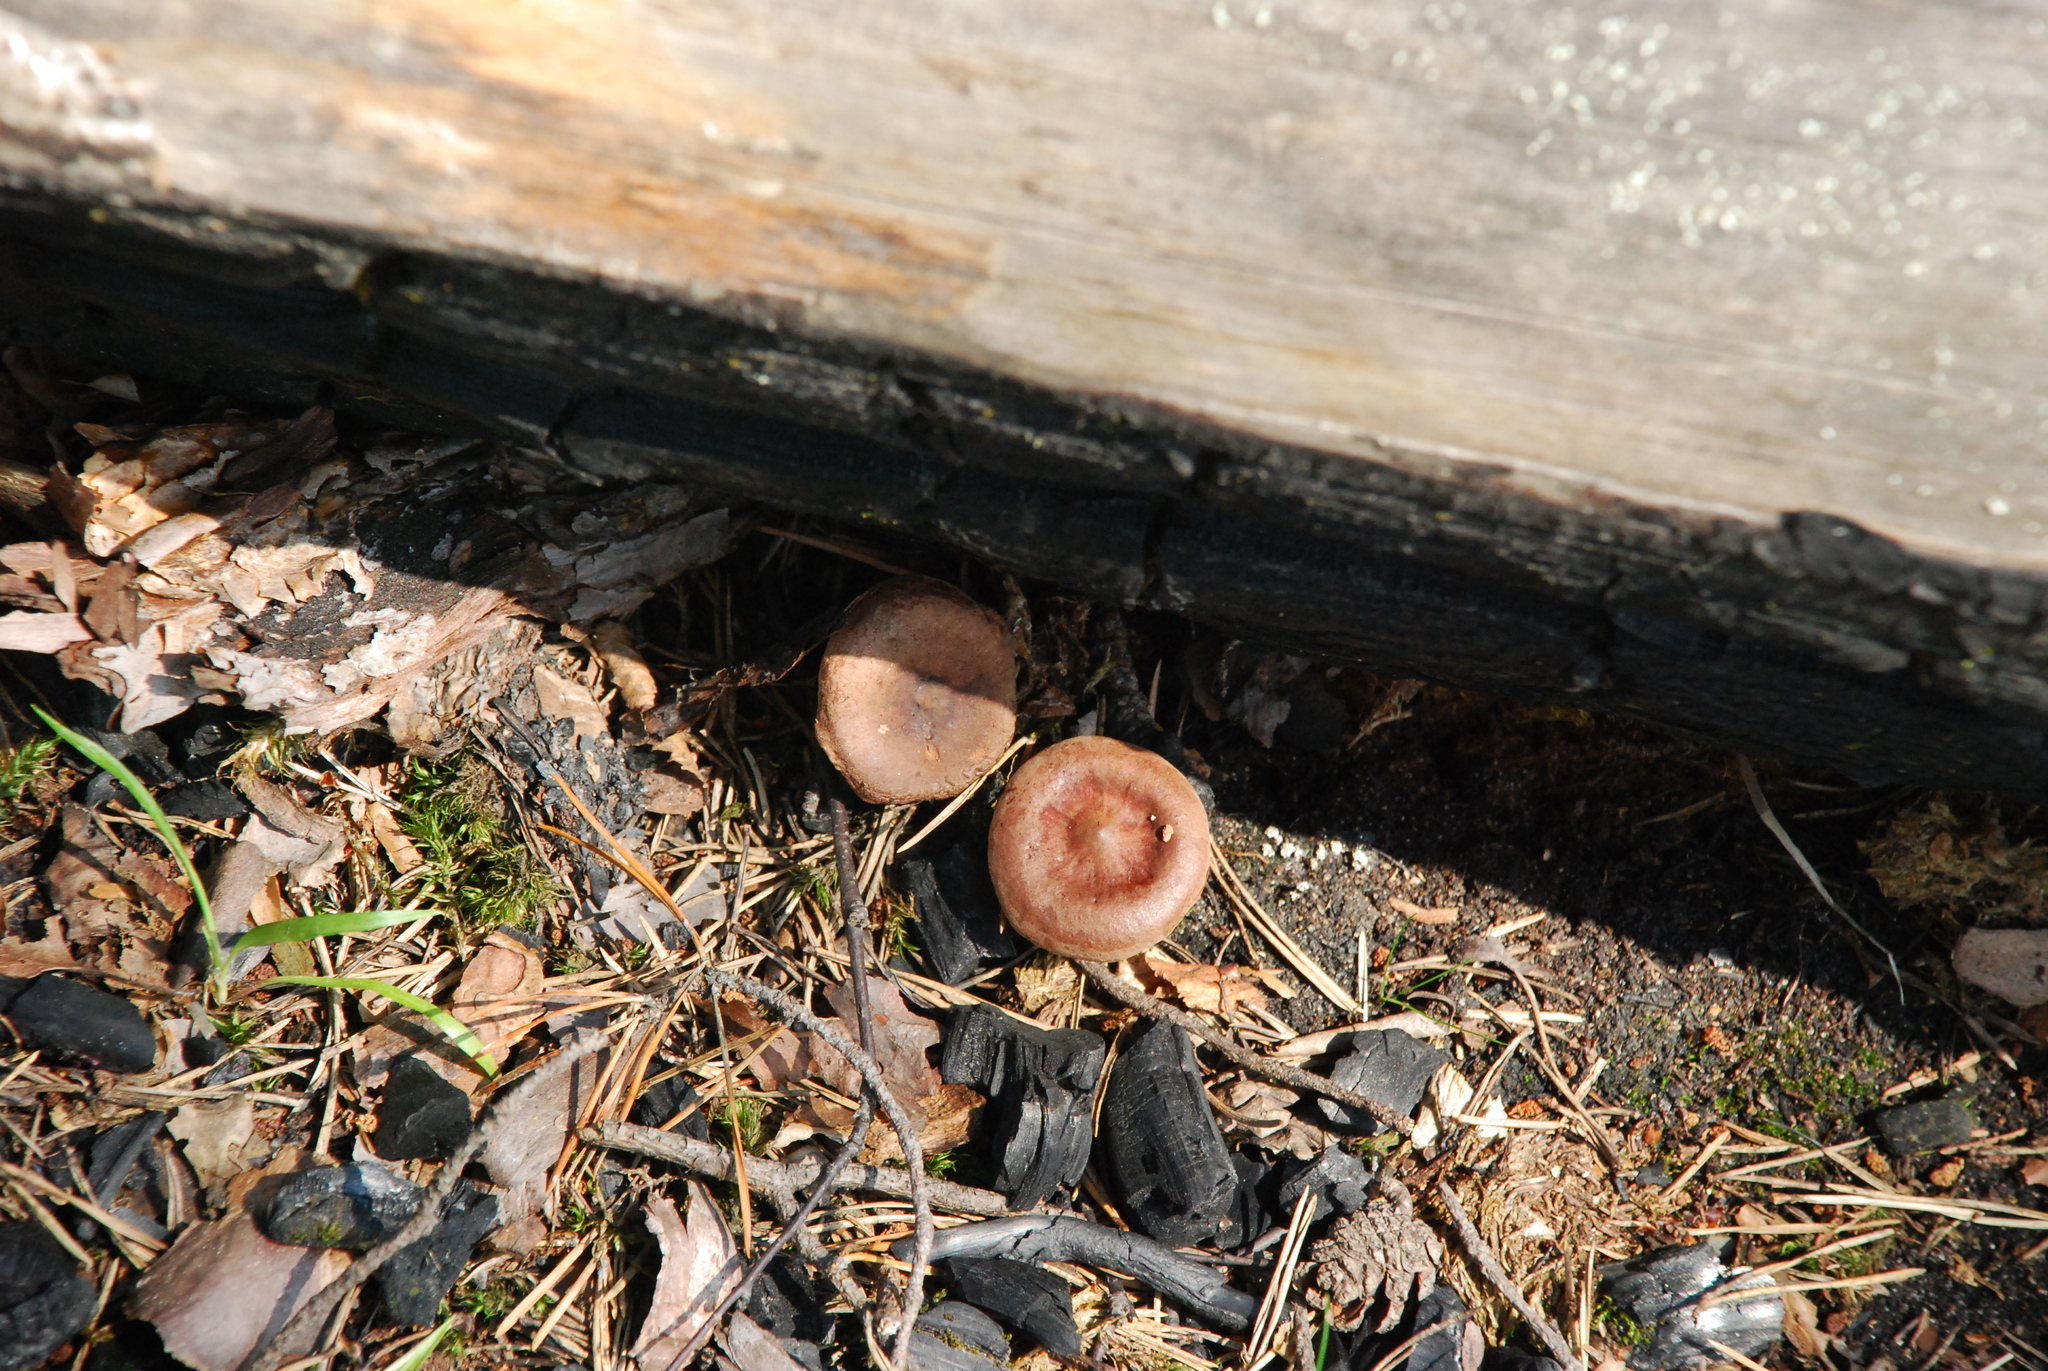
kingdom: Fungi
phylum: Basidiomycota
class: Agaricomycetes
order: Russulales
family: Russulaceae
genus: Lactarius
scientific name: Lactarius rufus
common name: Rufous milk-cap
